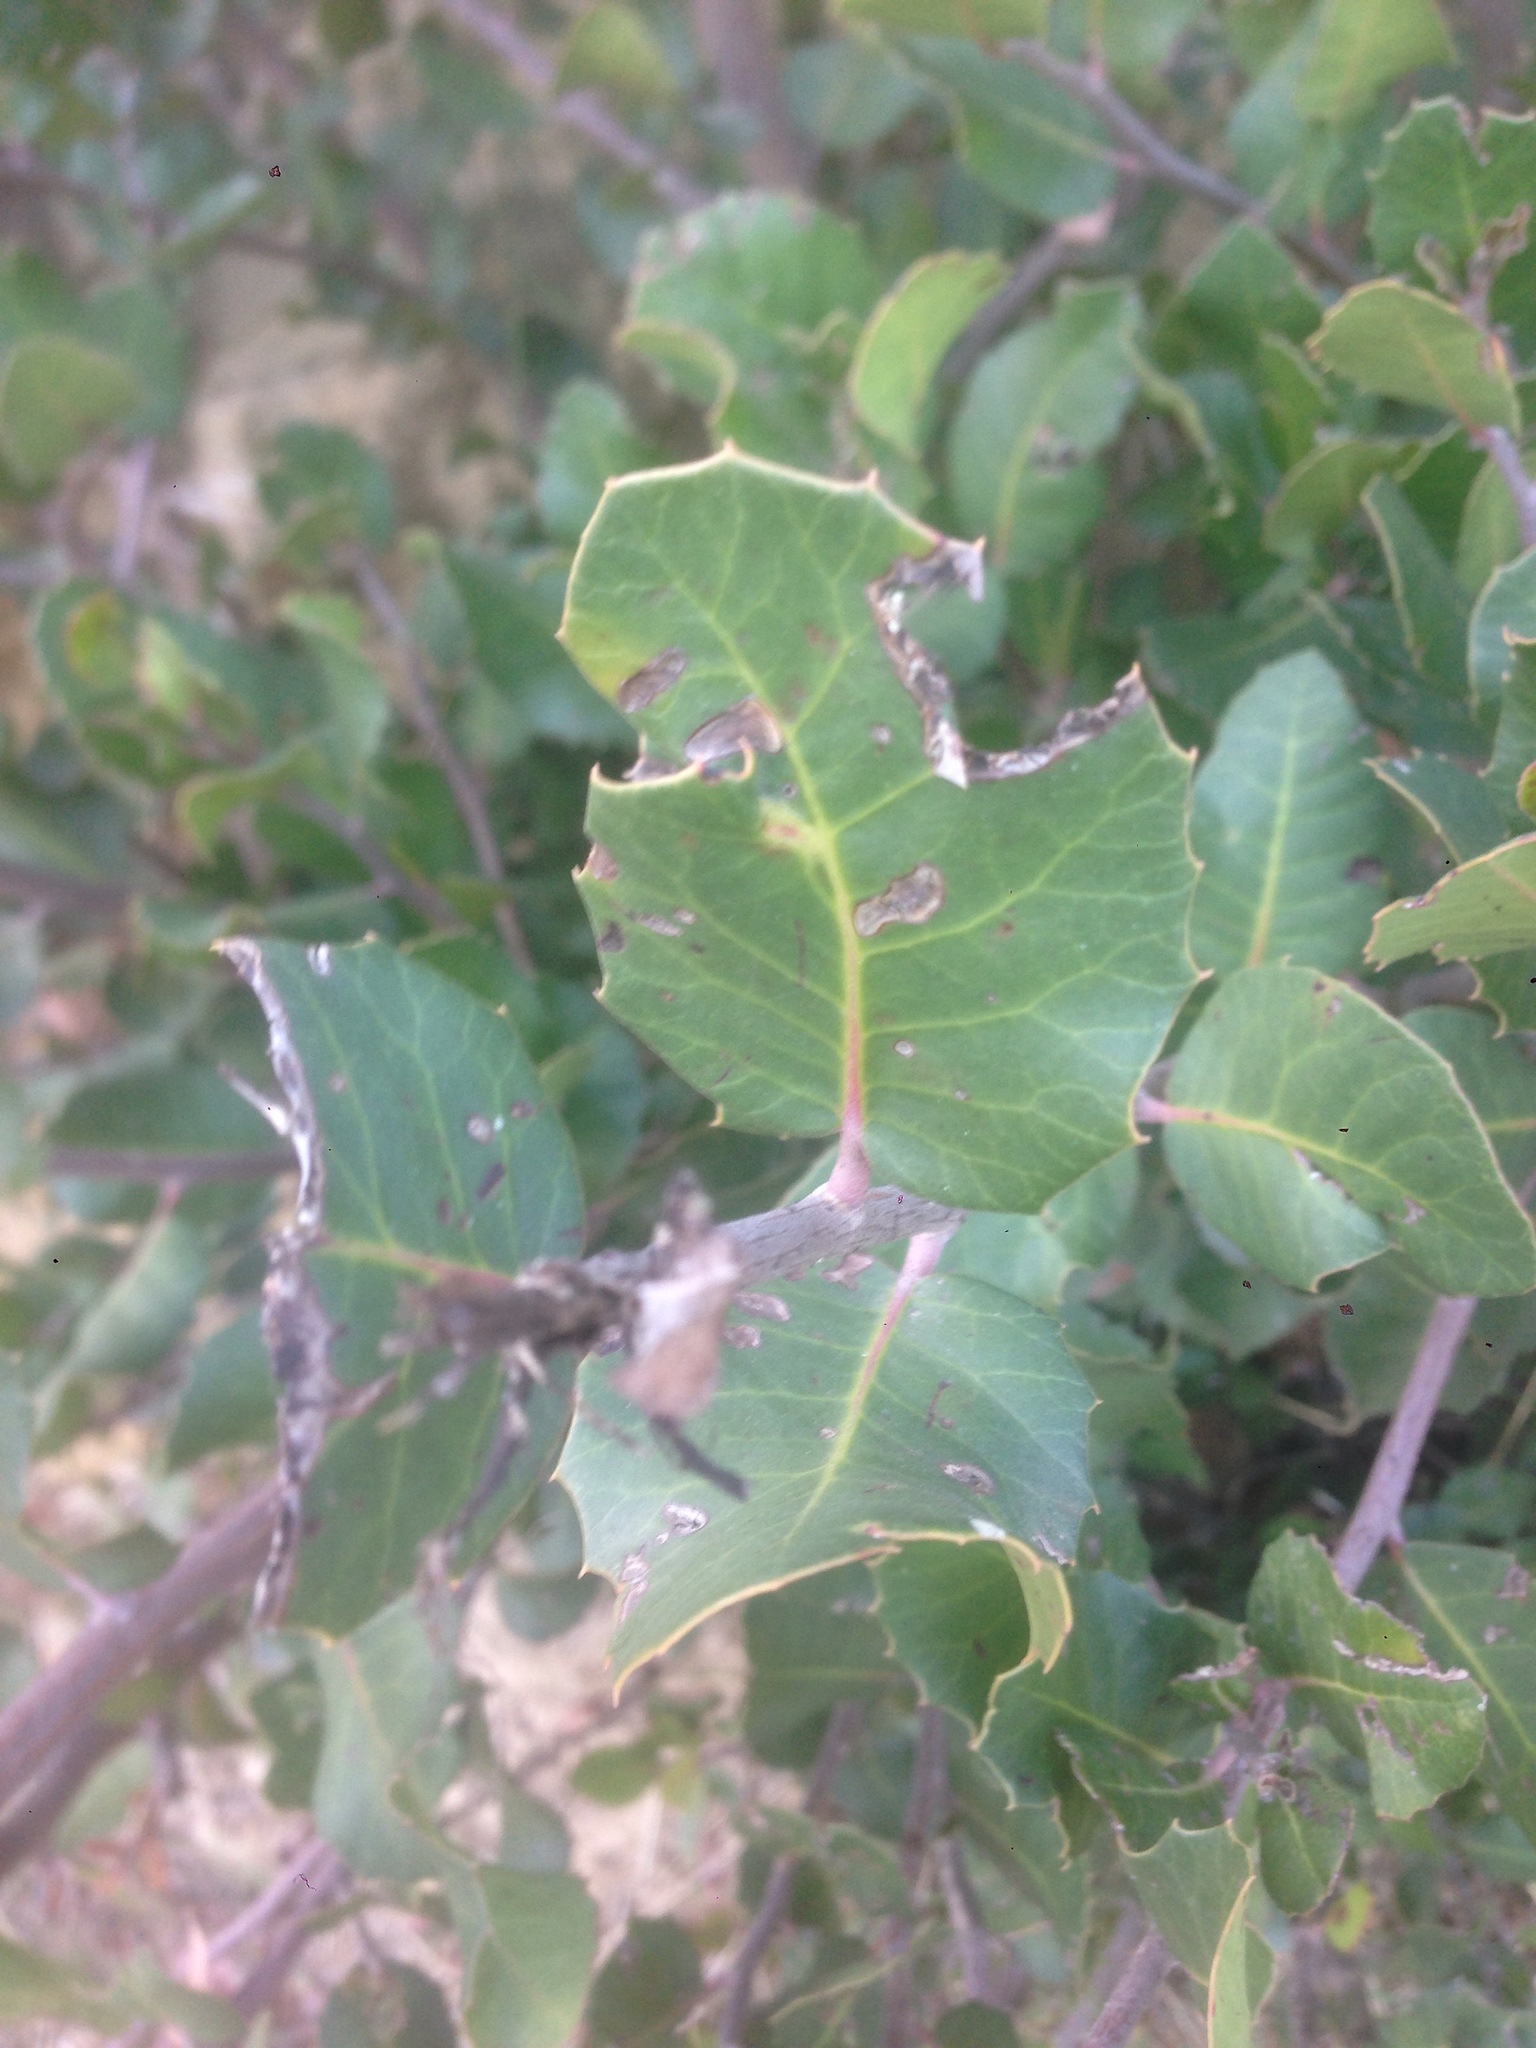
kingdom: Plantae
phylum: Tracheophyta
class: Magnoliopsida
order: Sapindales
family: Anacardiaceae
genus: Rhus
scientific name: Rhus integrifolia
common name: Lemonade sumac
